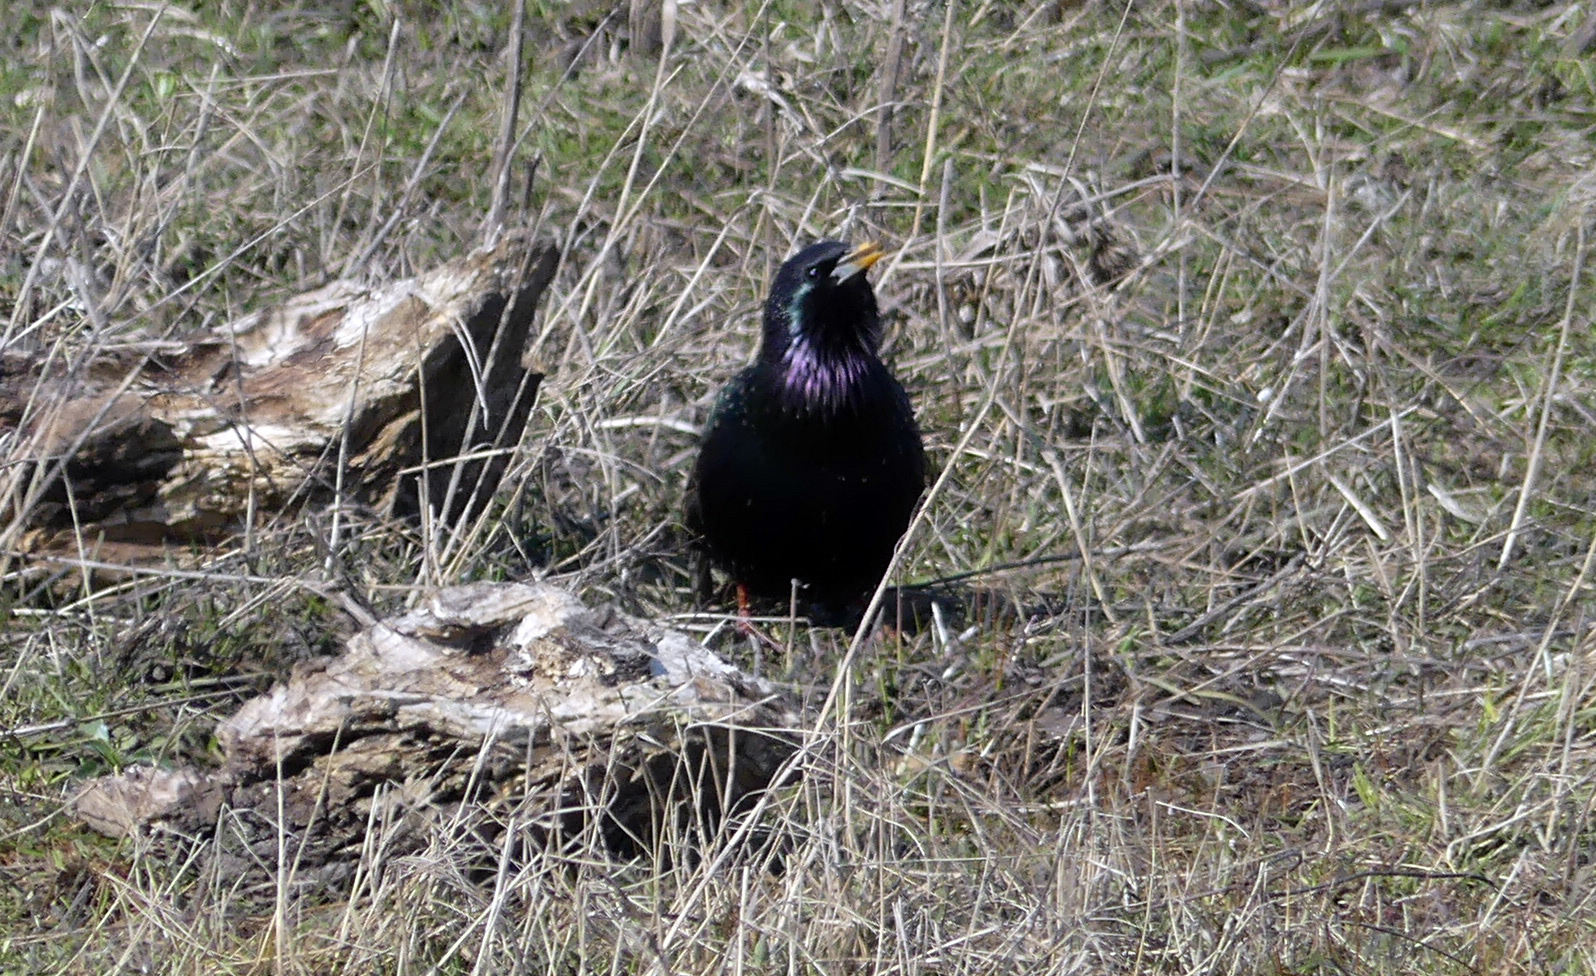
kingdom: Animalia
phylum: Chordata
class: Aves
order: Passeriformes
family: Sturnidae
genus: Sturnus
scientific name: Sturnus vulgaris
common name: Common starling
